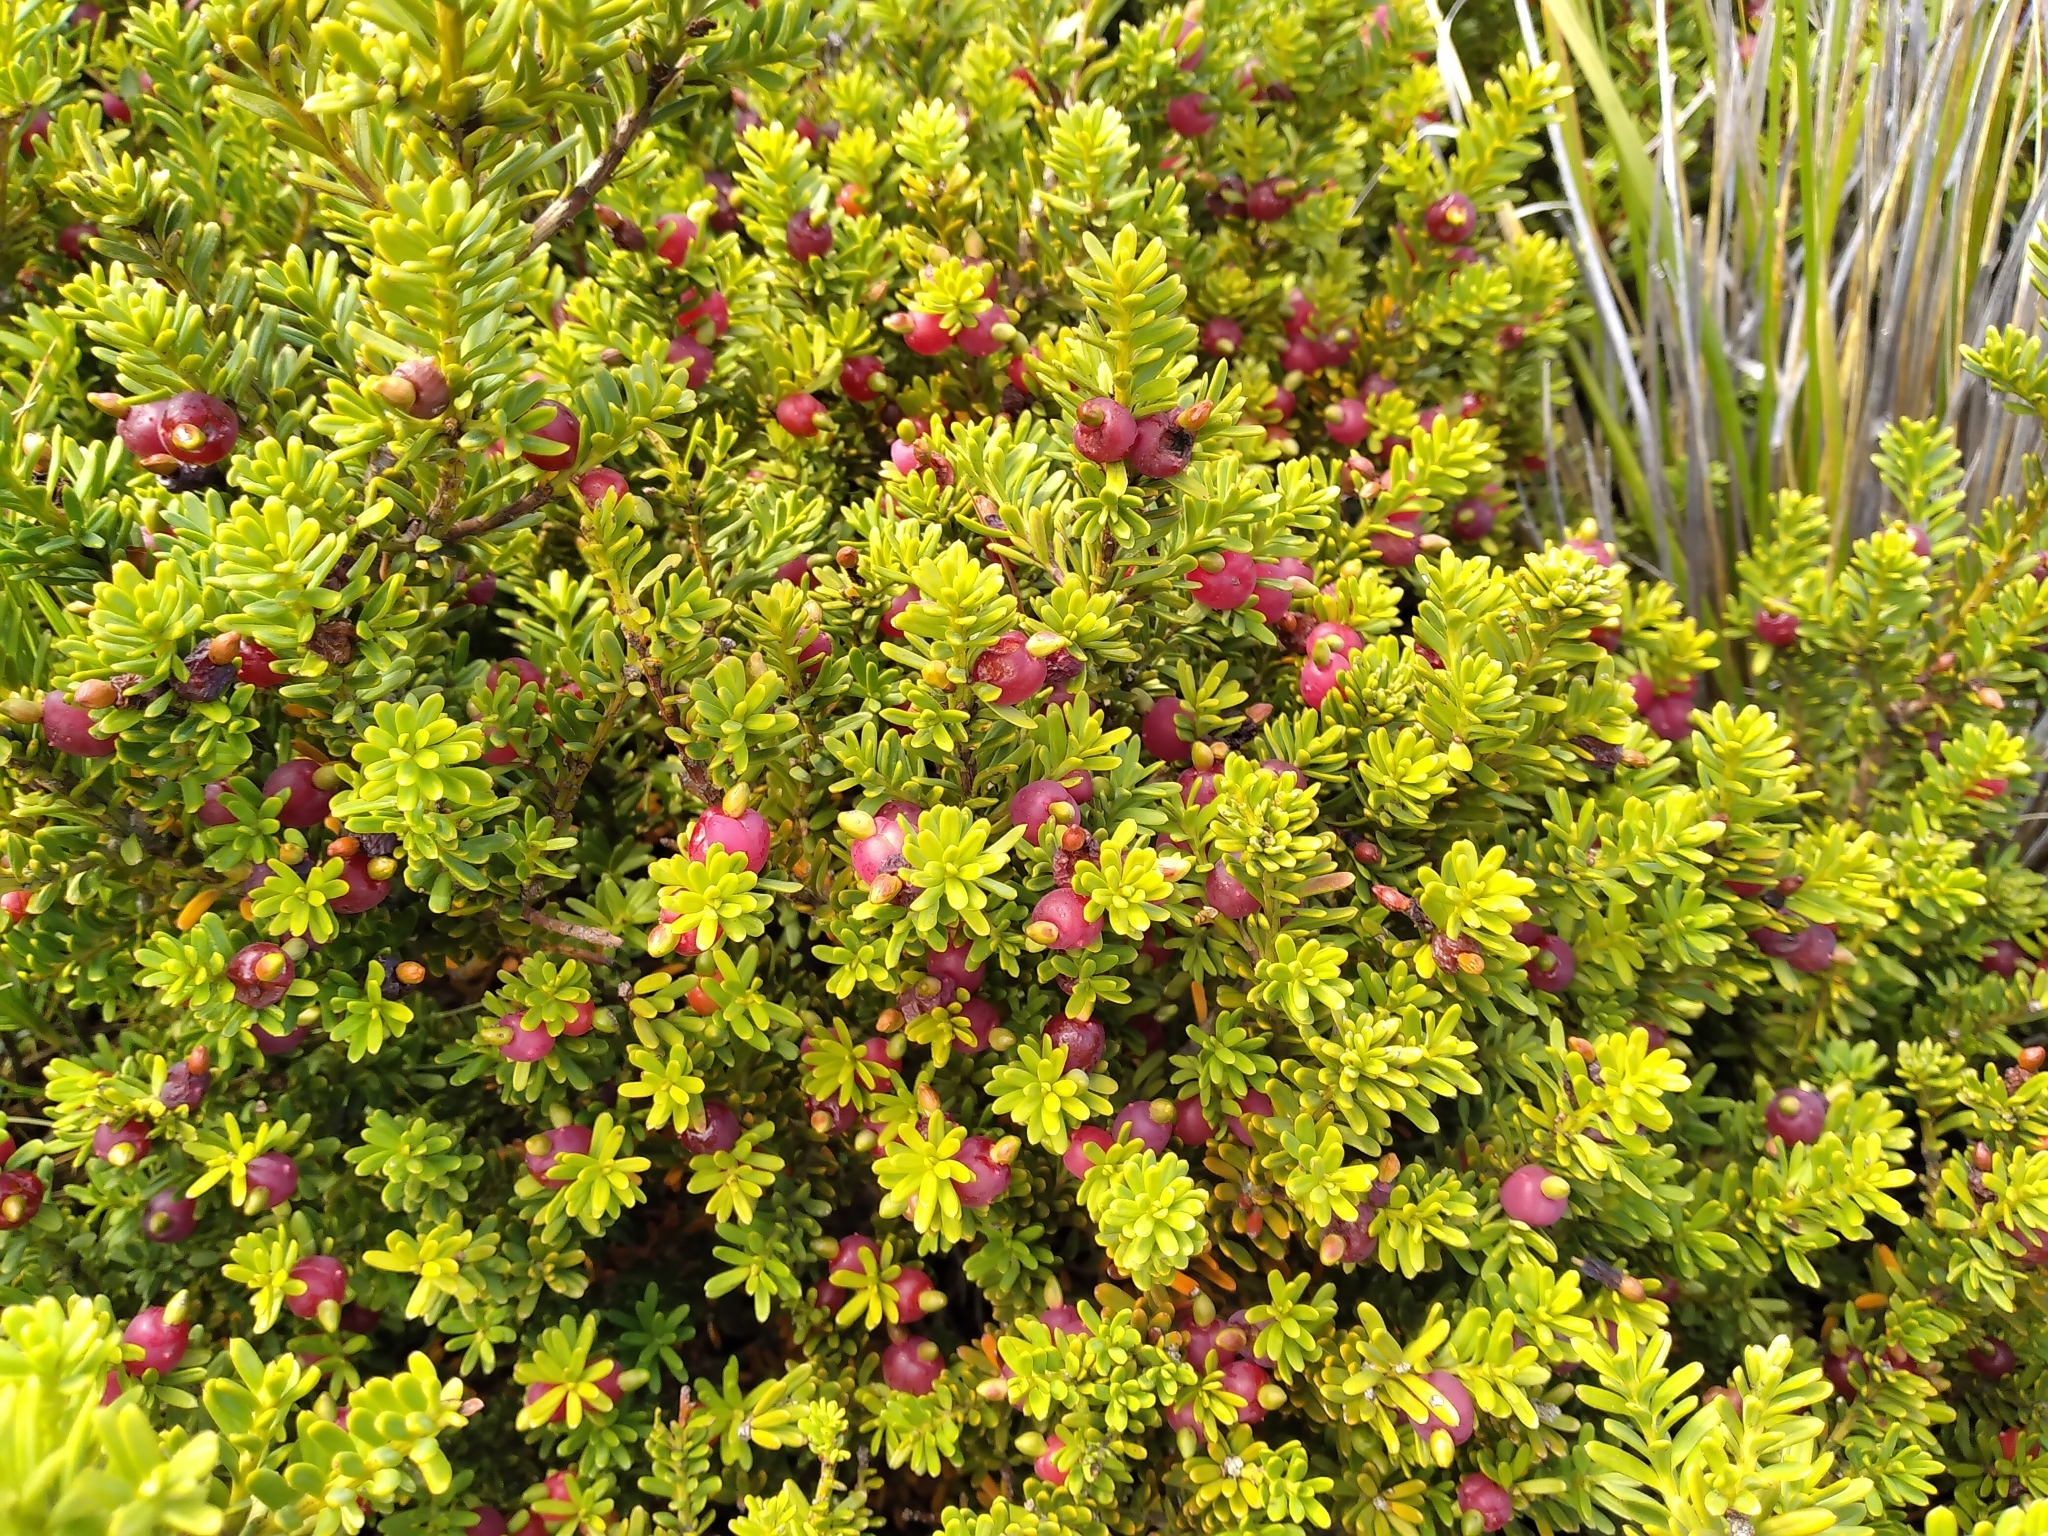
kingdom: Plantae
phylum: Tracheophyta
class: Pinopsida
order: Pinales
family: Podocarpaceae
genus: Podocarpus
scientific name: Podocarpus nivalis
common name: Alpine totara
